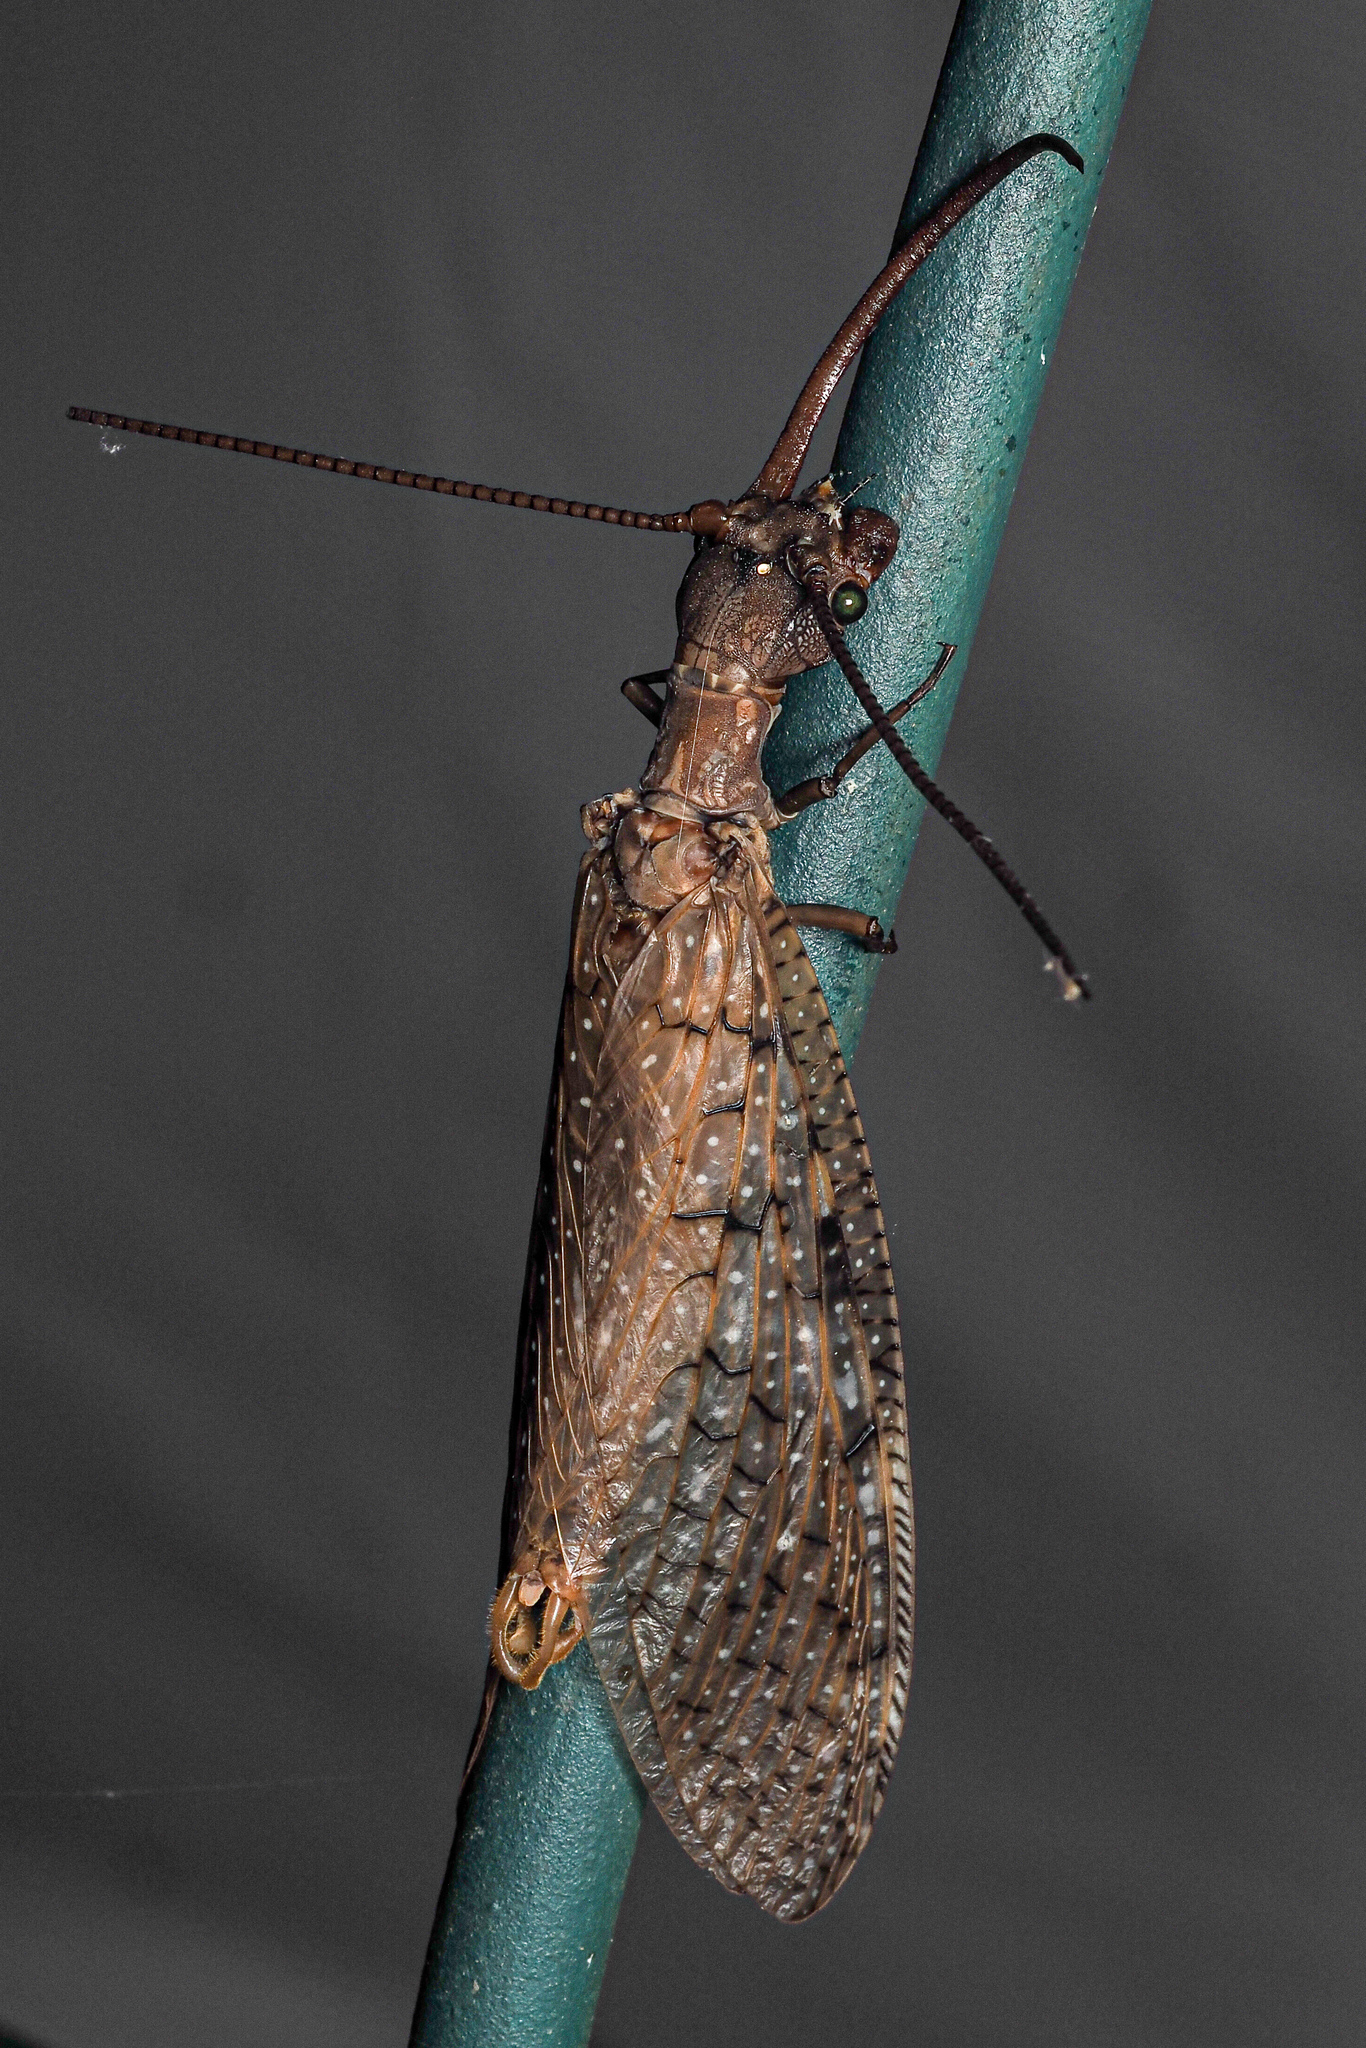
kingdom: Animalia
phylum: Arthropoda
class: Insecta
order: Megaloptera
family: Corydalidae
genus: Corydalus
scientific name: Corydalus cornutus
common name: Dobsonfly
